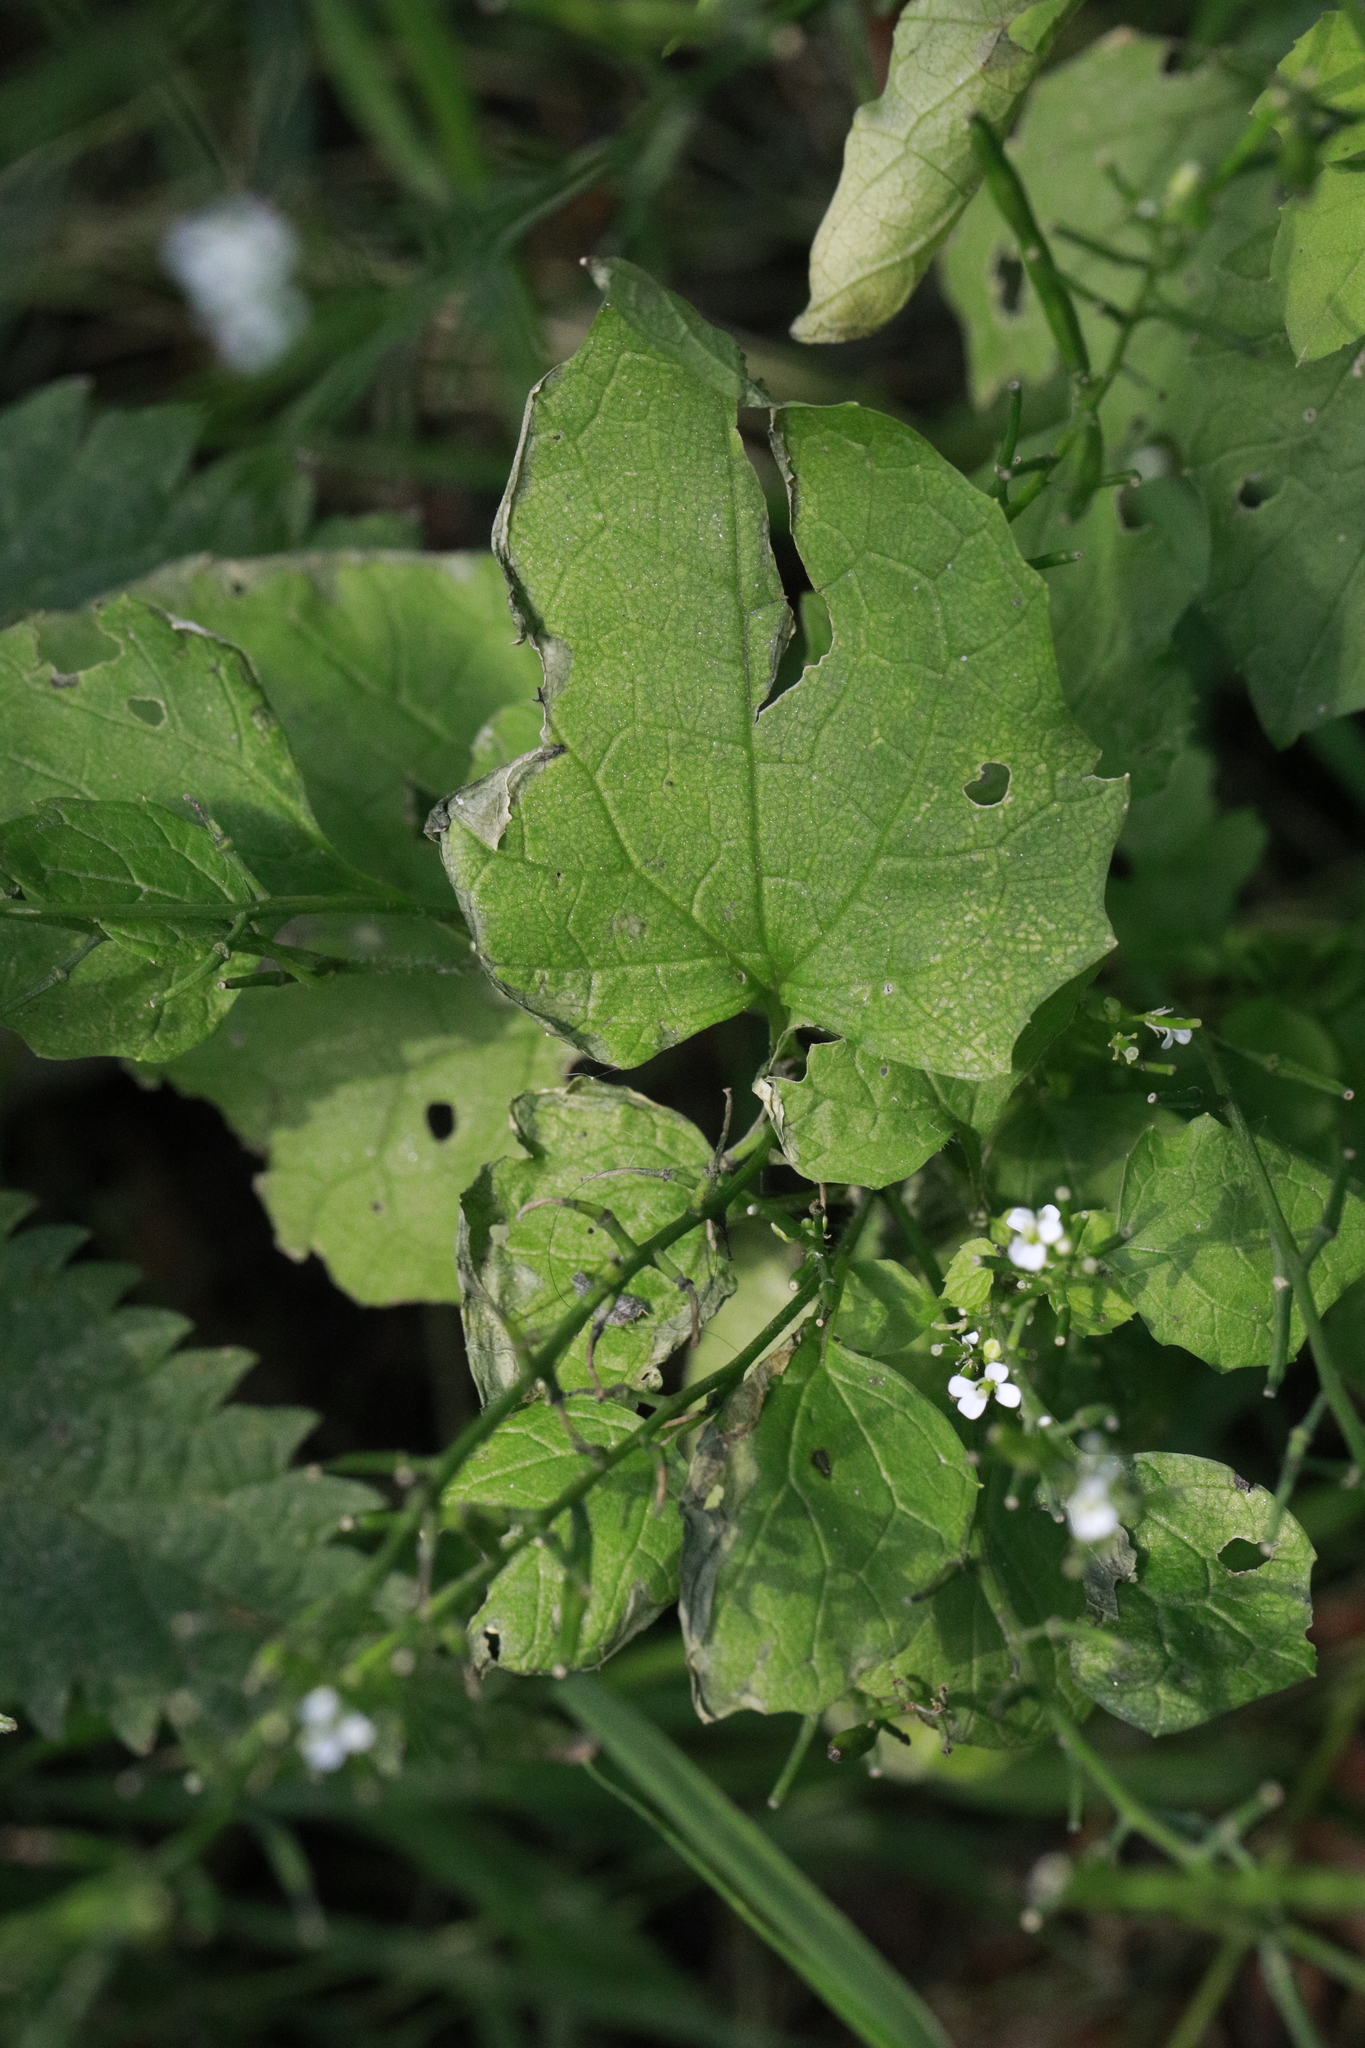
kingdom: Plantae
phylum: Tracheophyta
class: Magnoliopsida
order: Brassicales
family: Brassicaceae
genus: Alliaria
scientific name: Alliaria petiolata
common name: Garlic mustard
